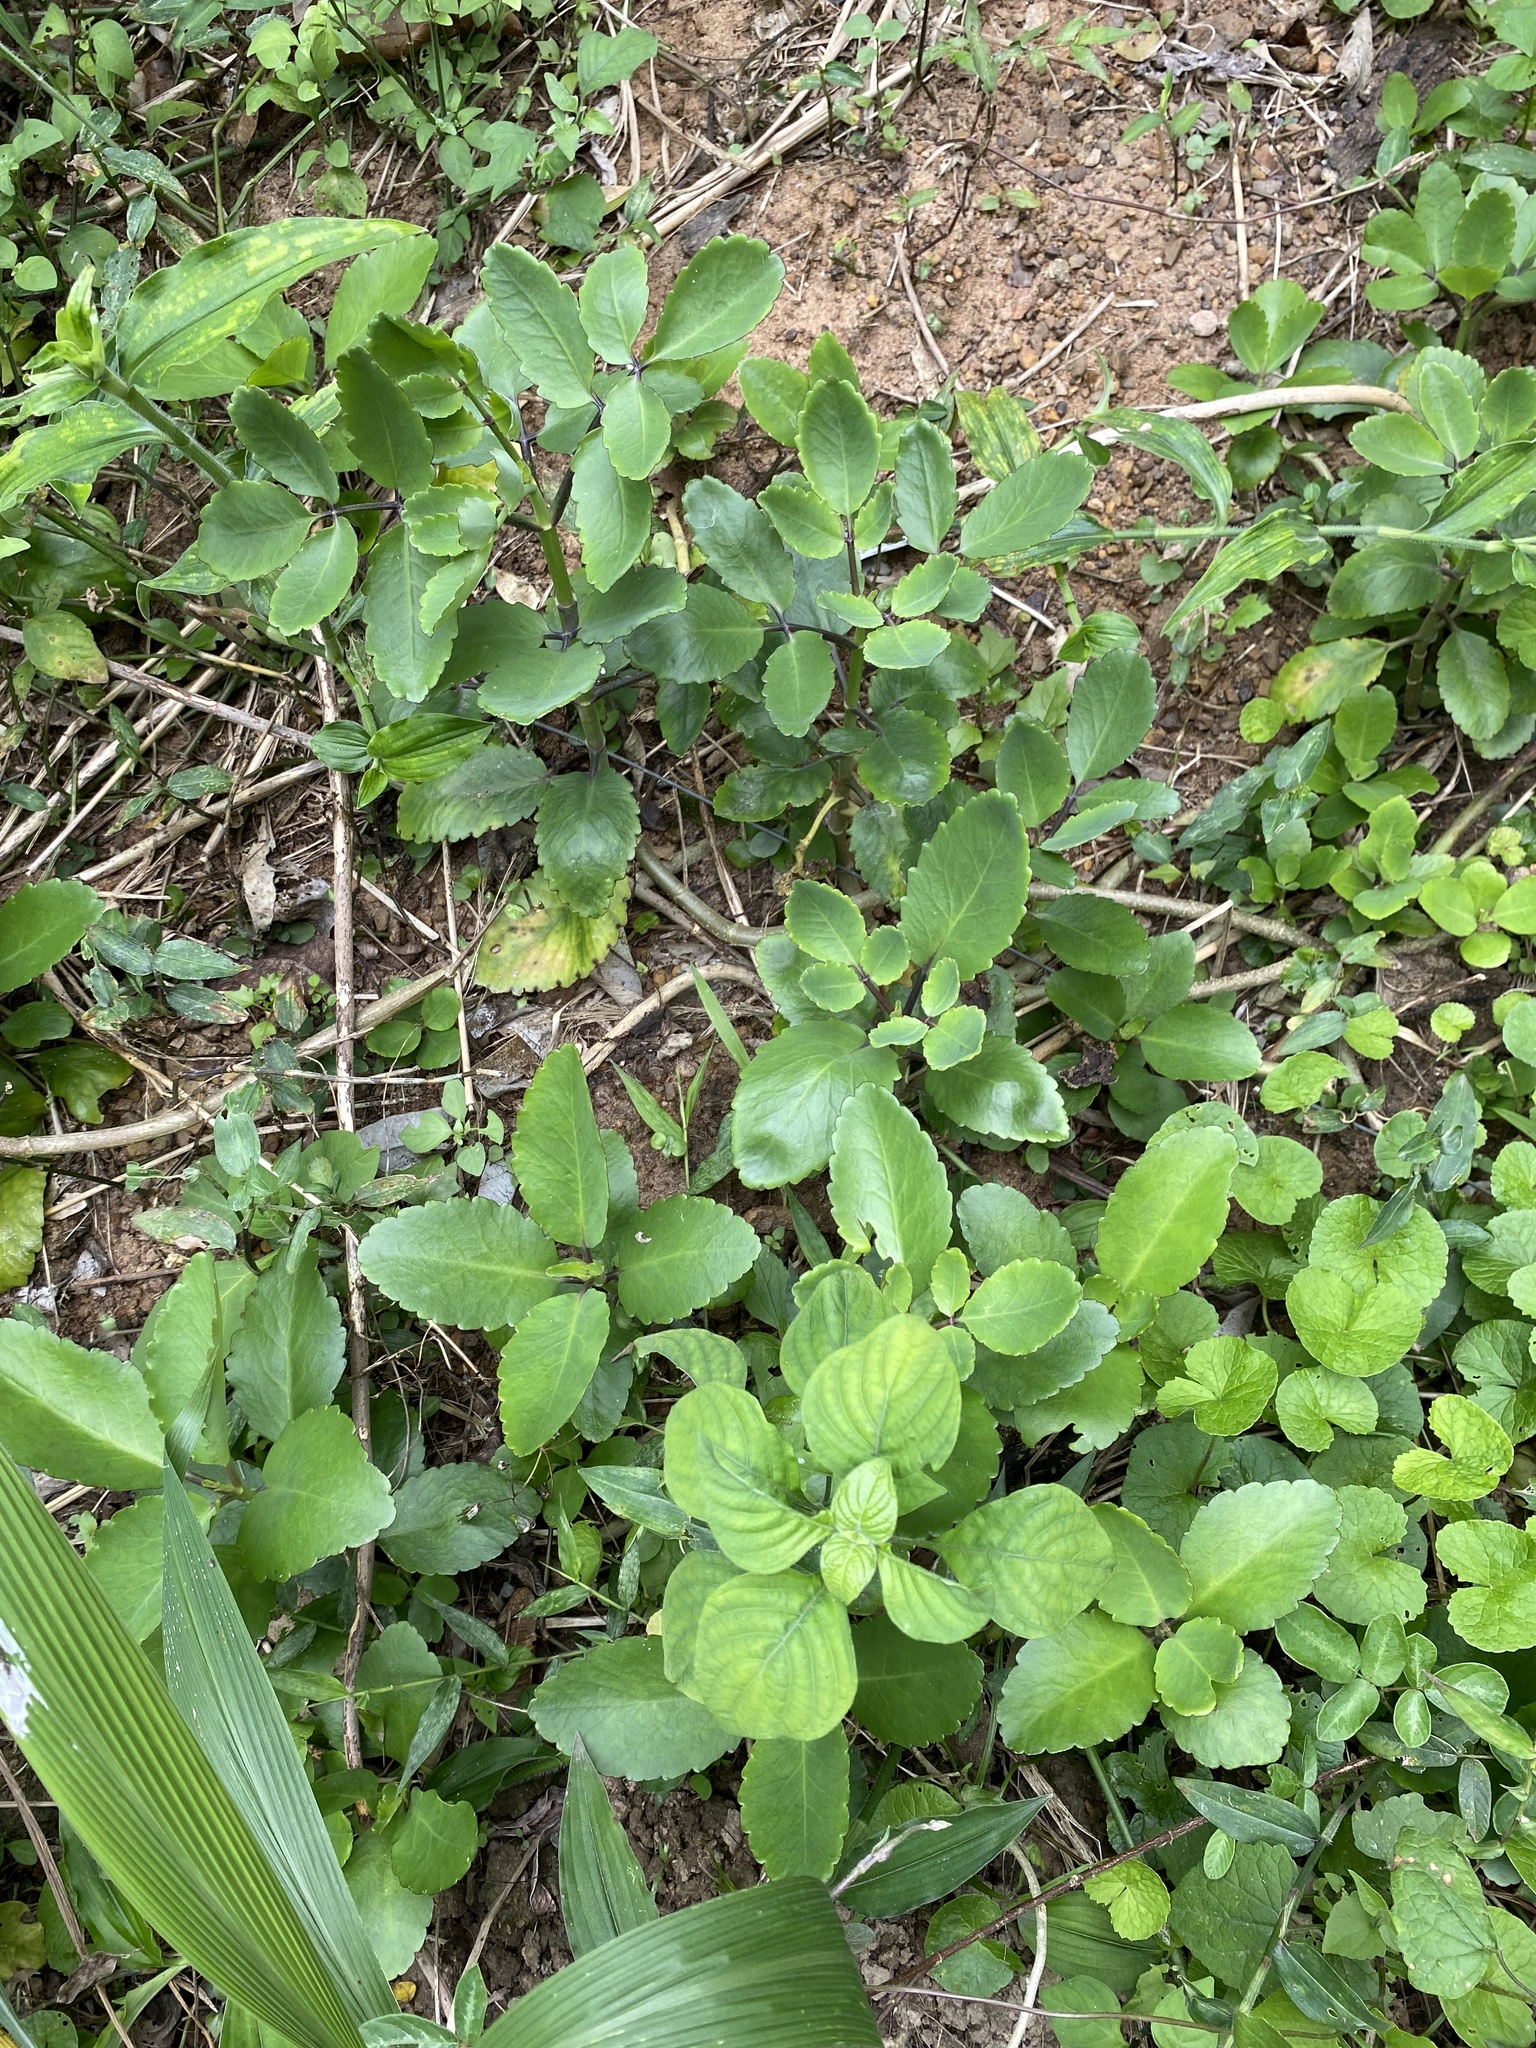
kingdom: Plantae
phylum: Tracheophyta
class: Magnoliopsida
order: Saxifragales
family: Crassulaceae
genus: Kalanchoe
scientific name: Kalanchoe pinnata
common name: Cathedral bells
